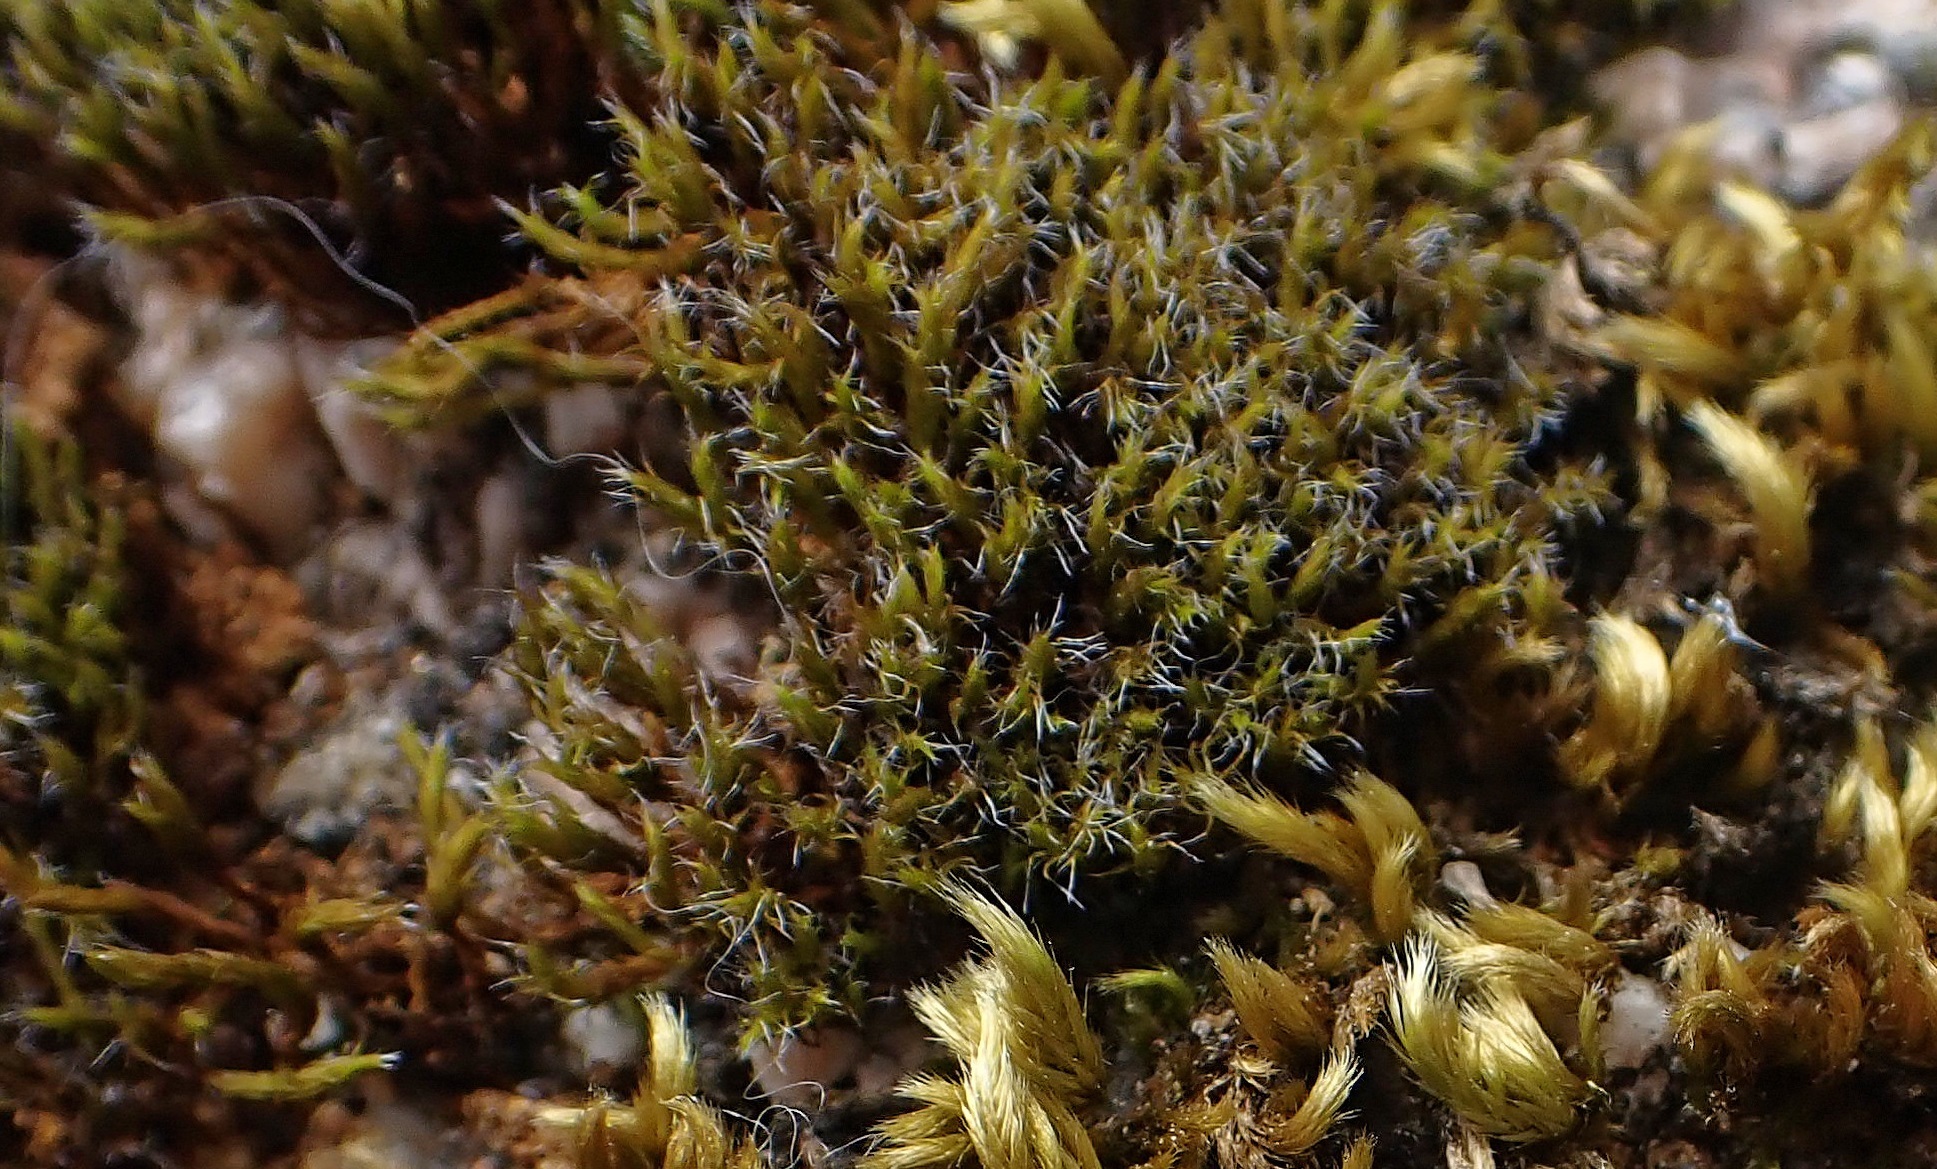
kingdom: Plantae
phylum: Bryophyta
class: Bryopsida
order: Dicranales
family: Leucobryaceae
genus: Campylopus
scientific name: Campylopus introflexus
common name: Heath star moss
